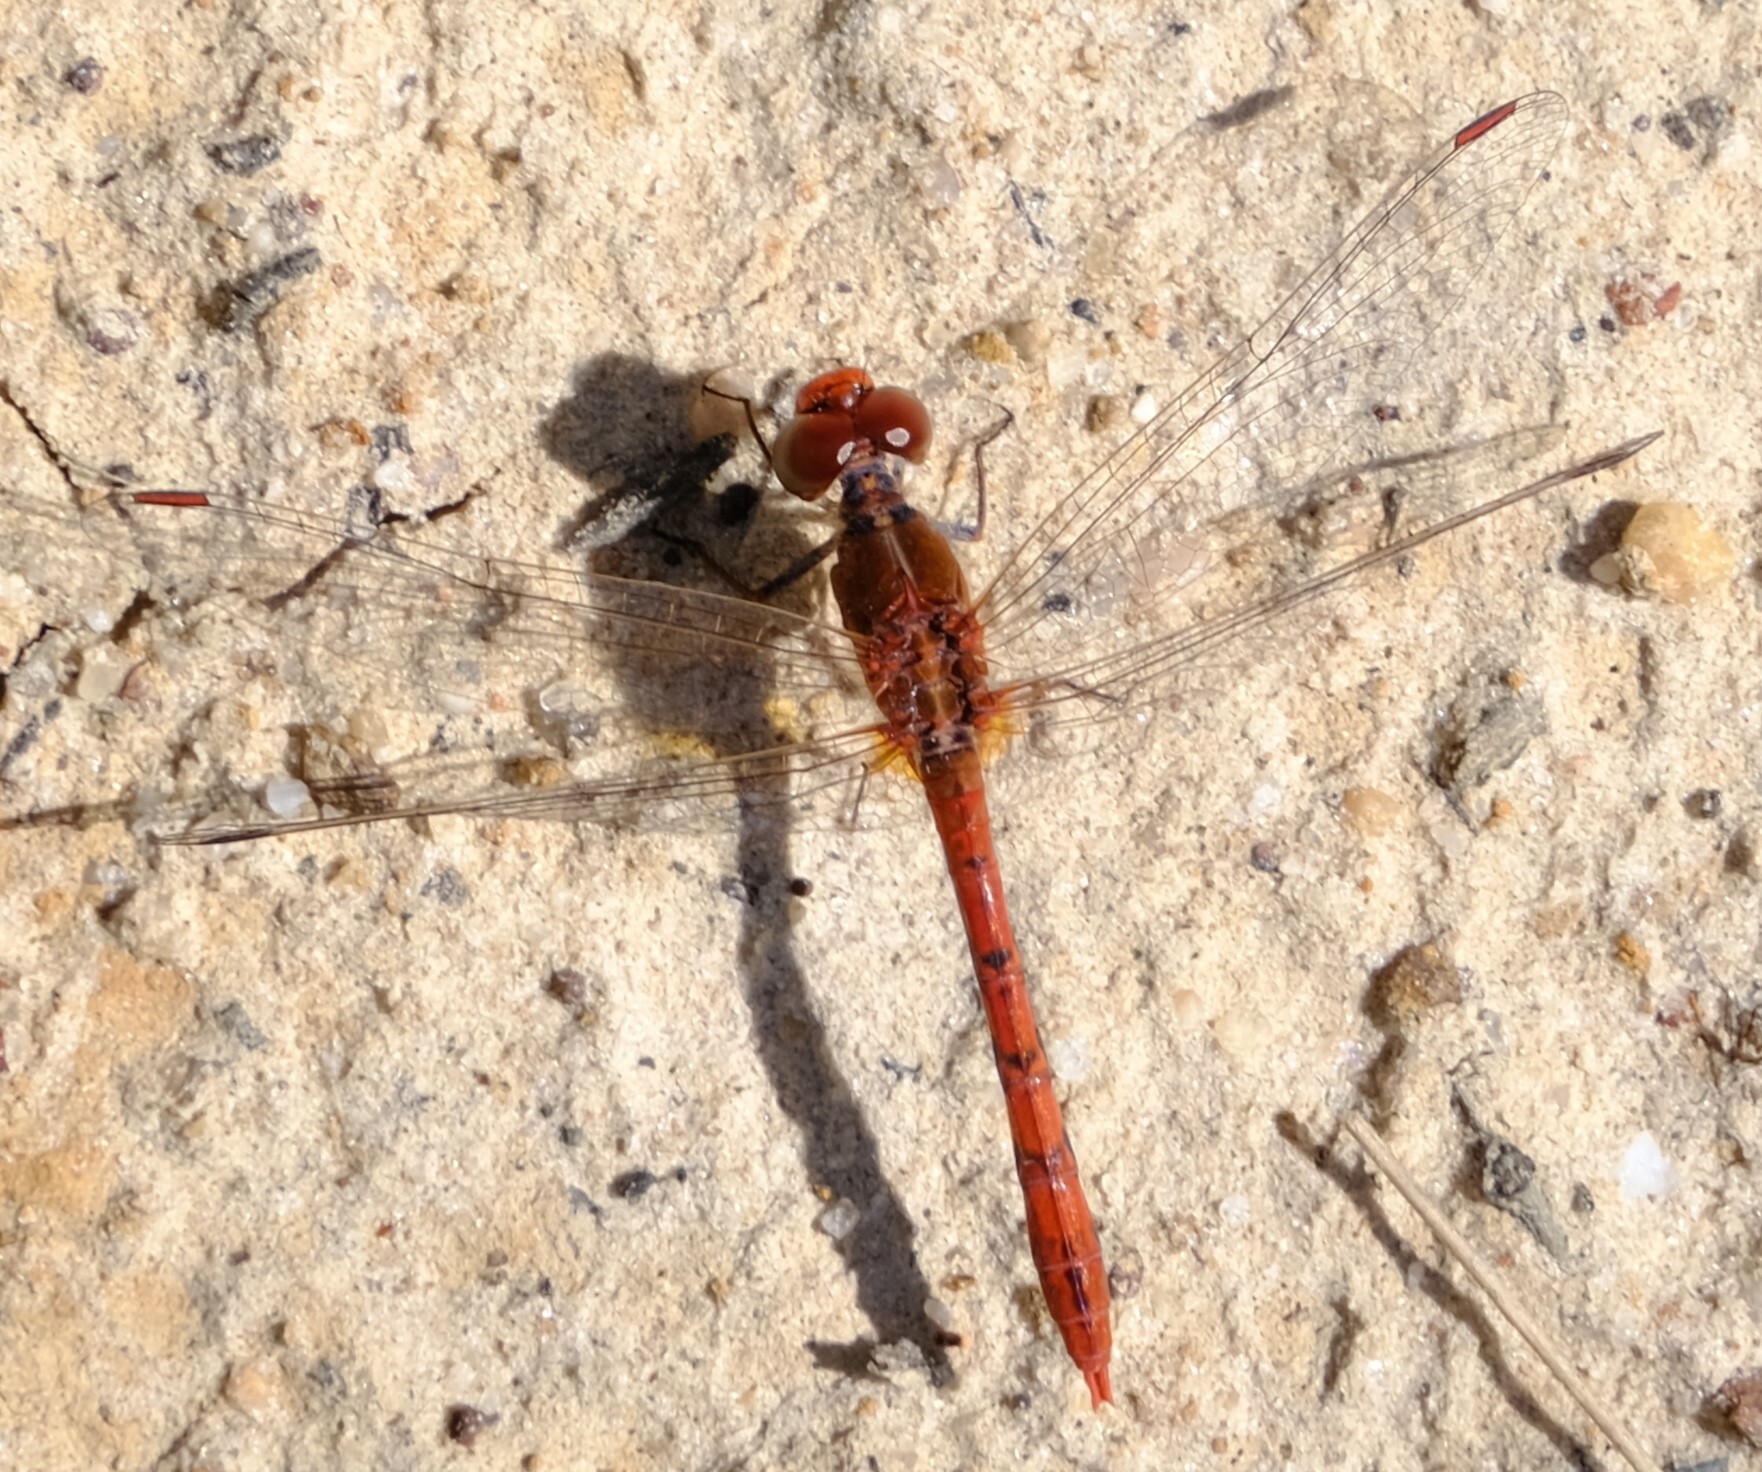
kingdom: Animalia
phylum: Arthropoda
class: Insecta
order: Odonata
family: Libellulidae
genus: Diplacodes
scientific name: Diplacodes bipunctata
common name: Red percher dragonfly
